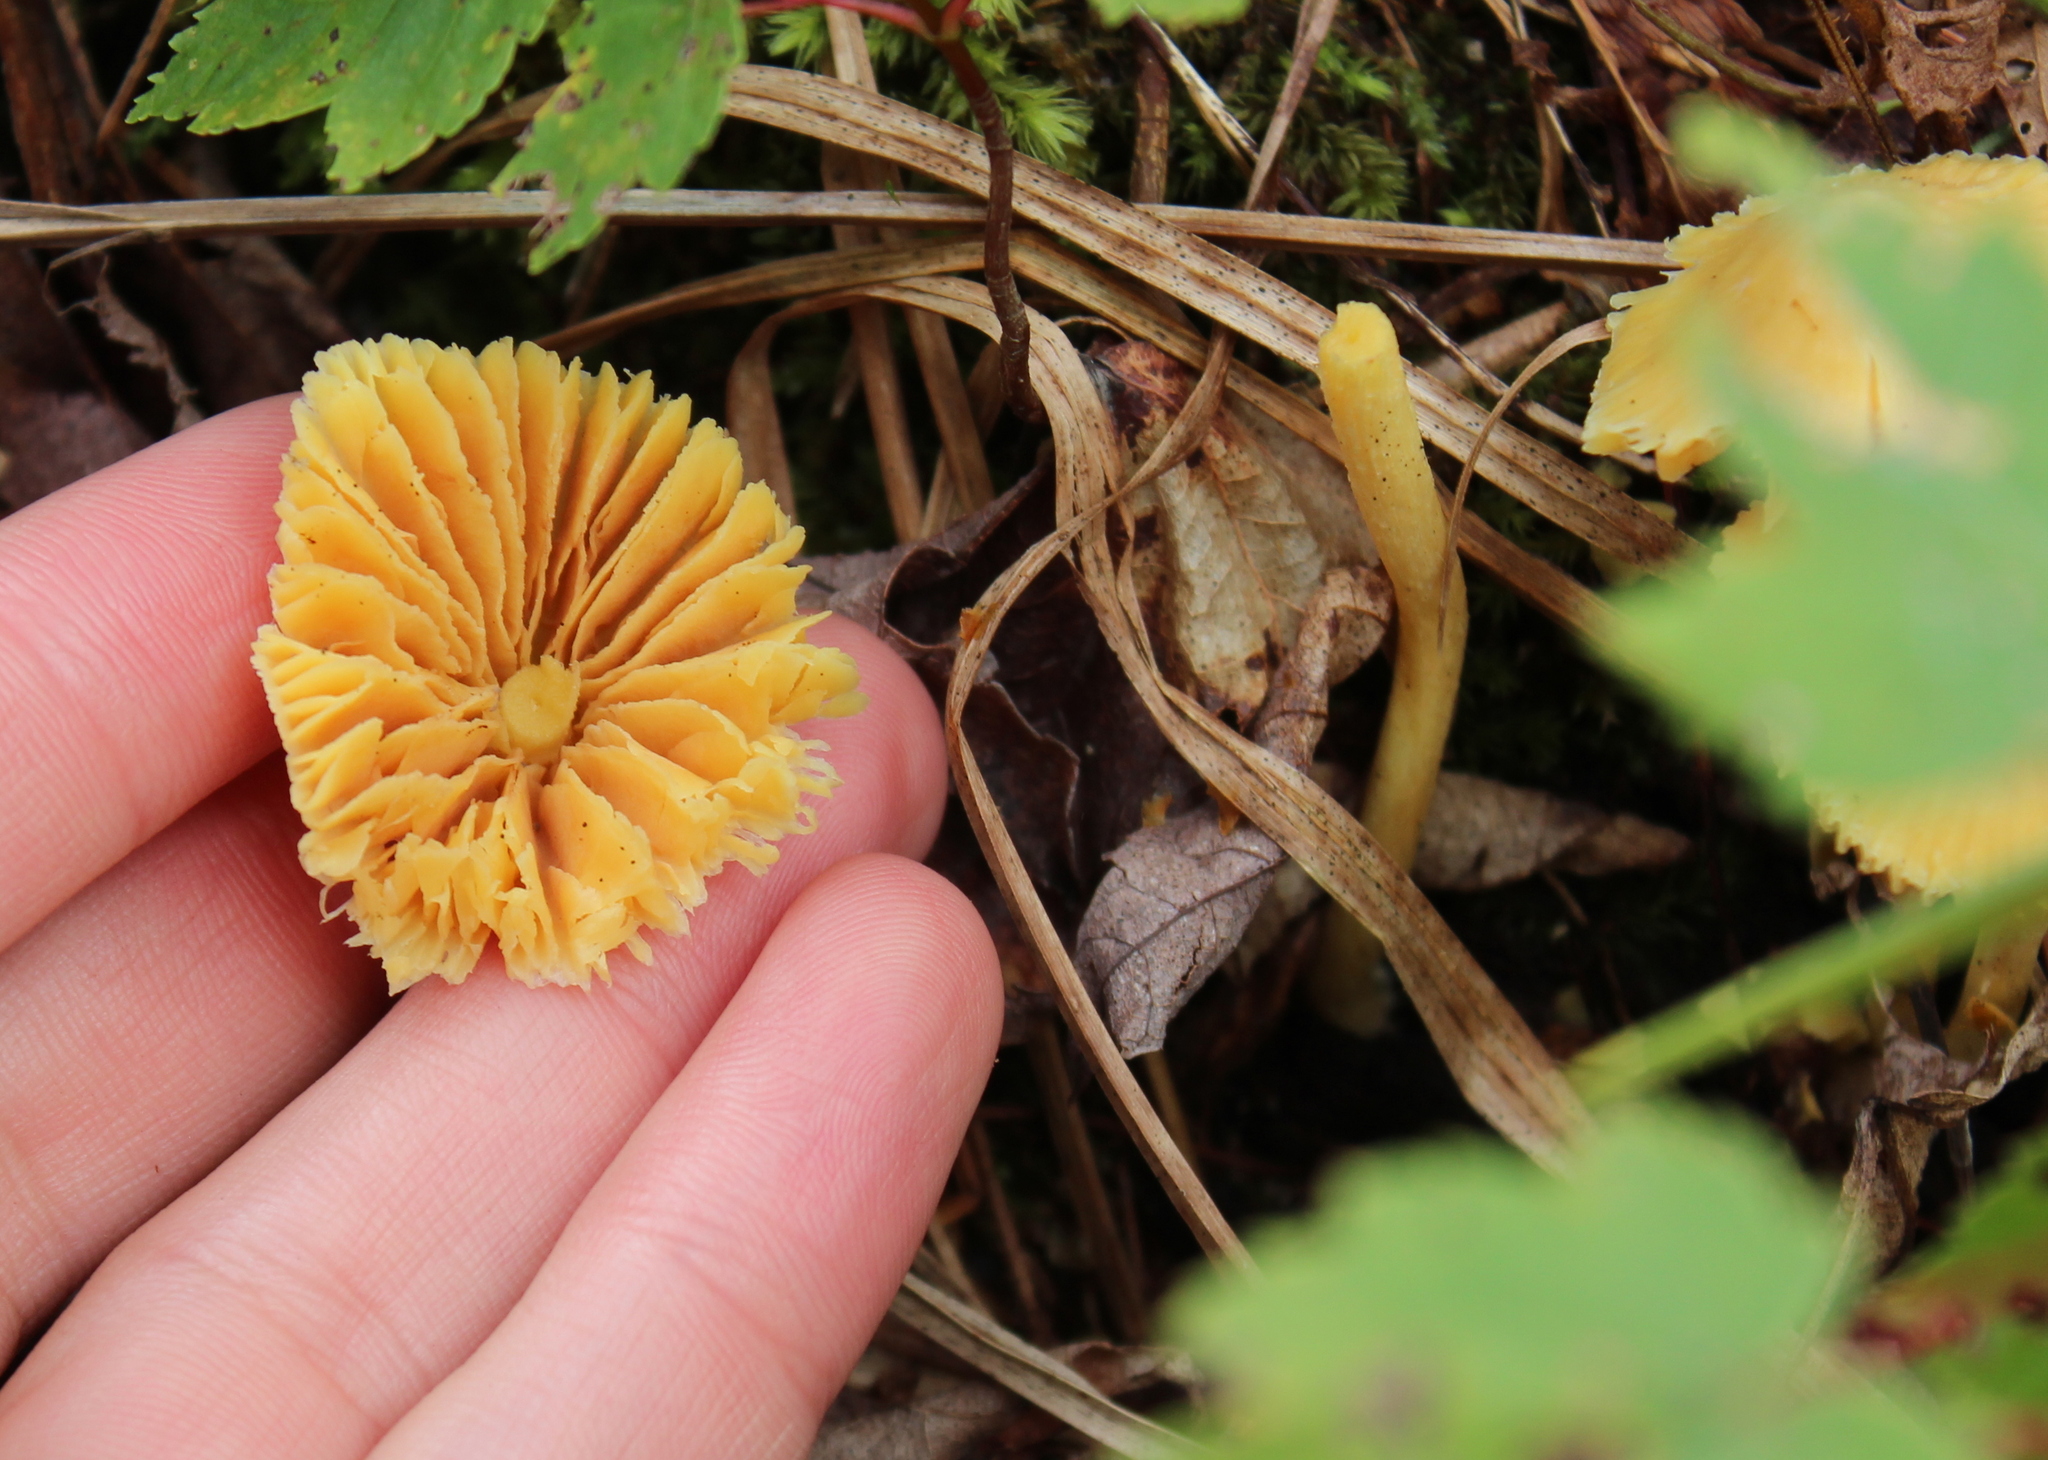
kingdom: Fungi
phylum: Basidiomycota
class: Agaricomycetes
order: Agaricales
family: Entolomataceae
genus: Entoloma
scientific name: Entoloma murrayi
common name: Yellow unicorn entoloma
